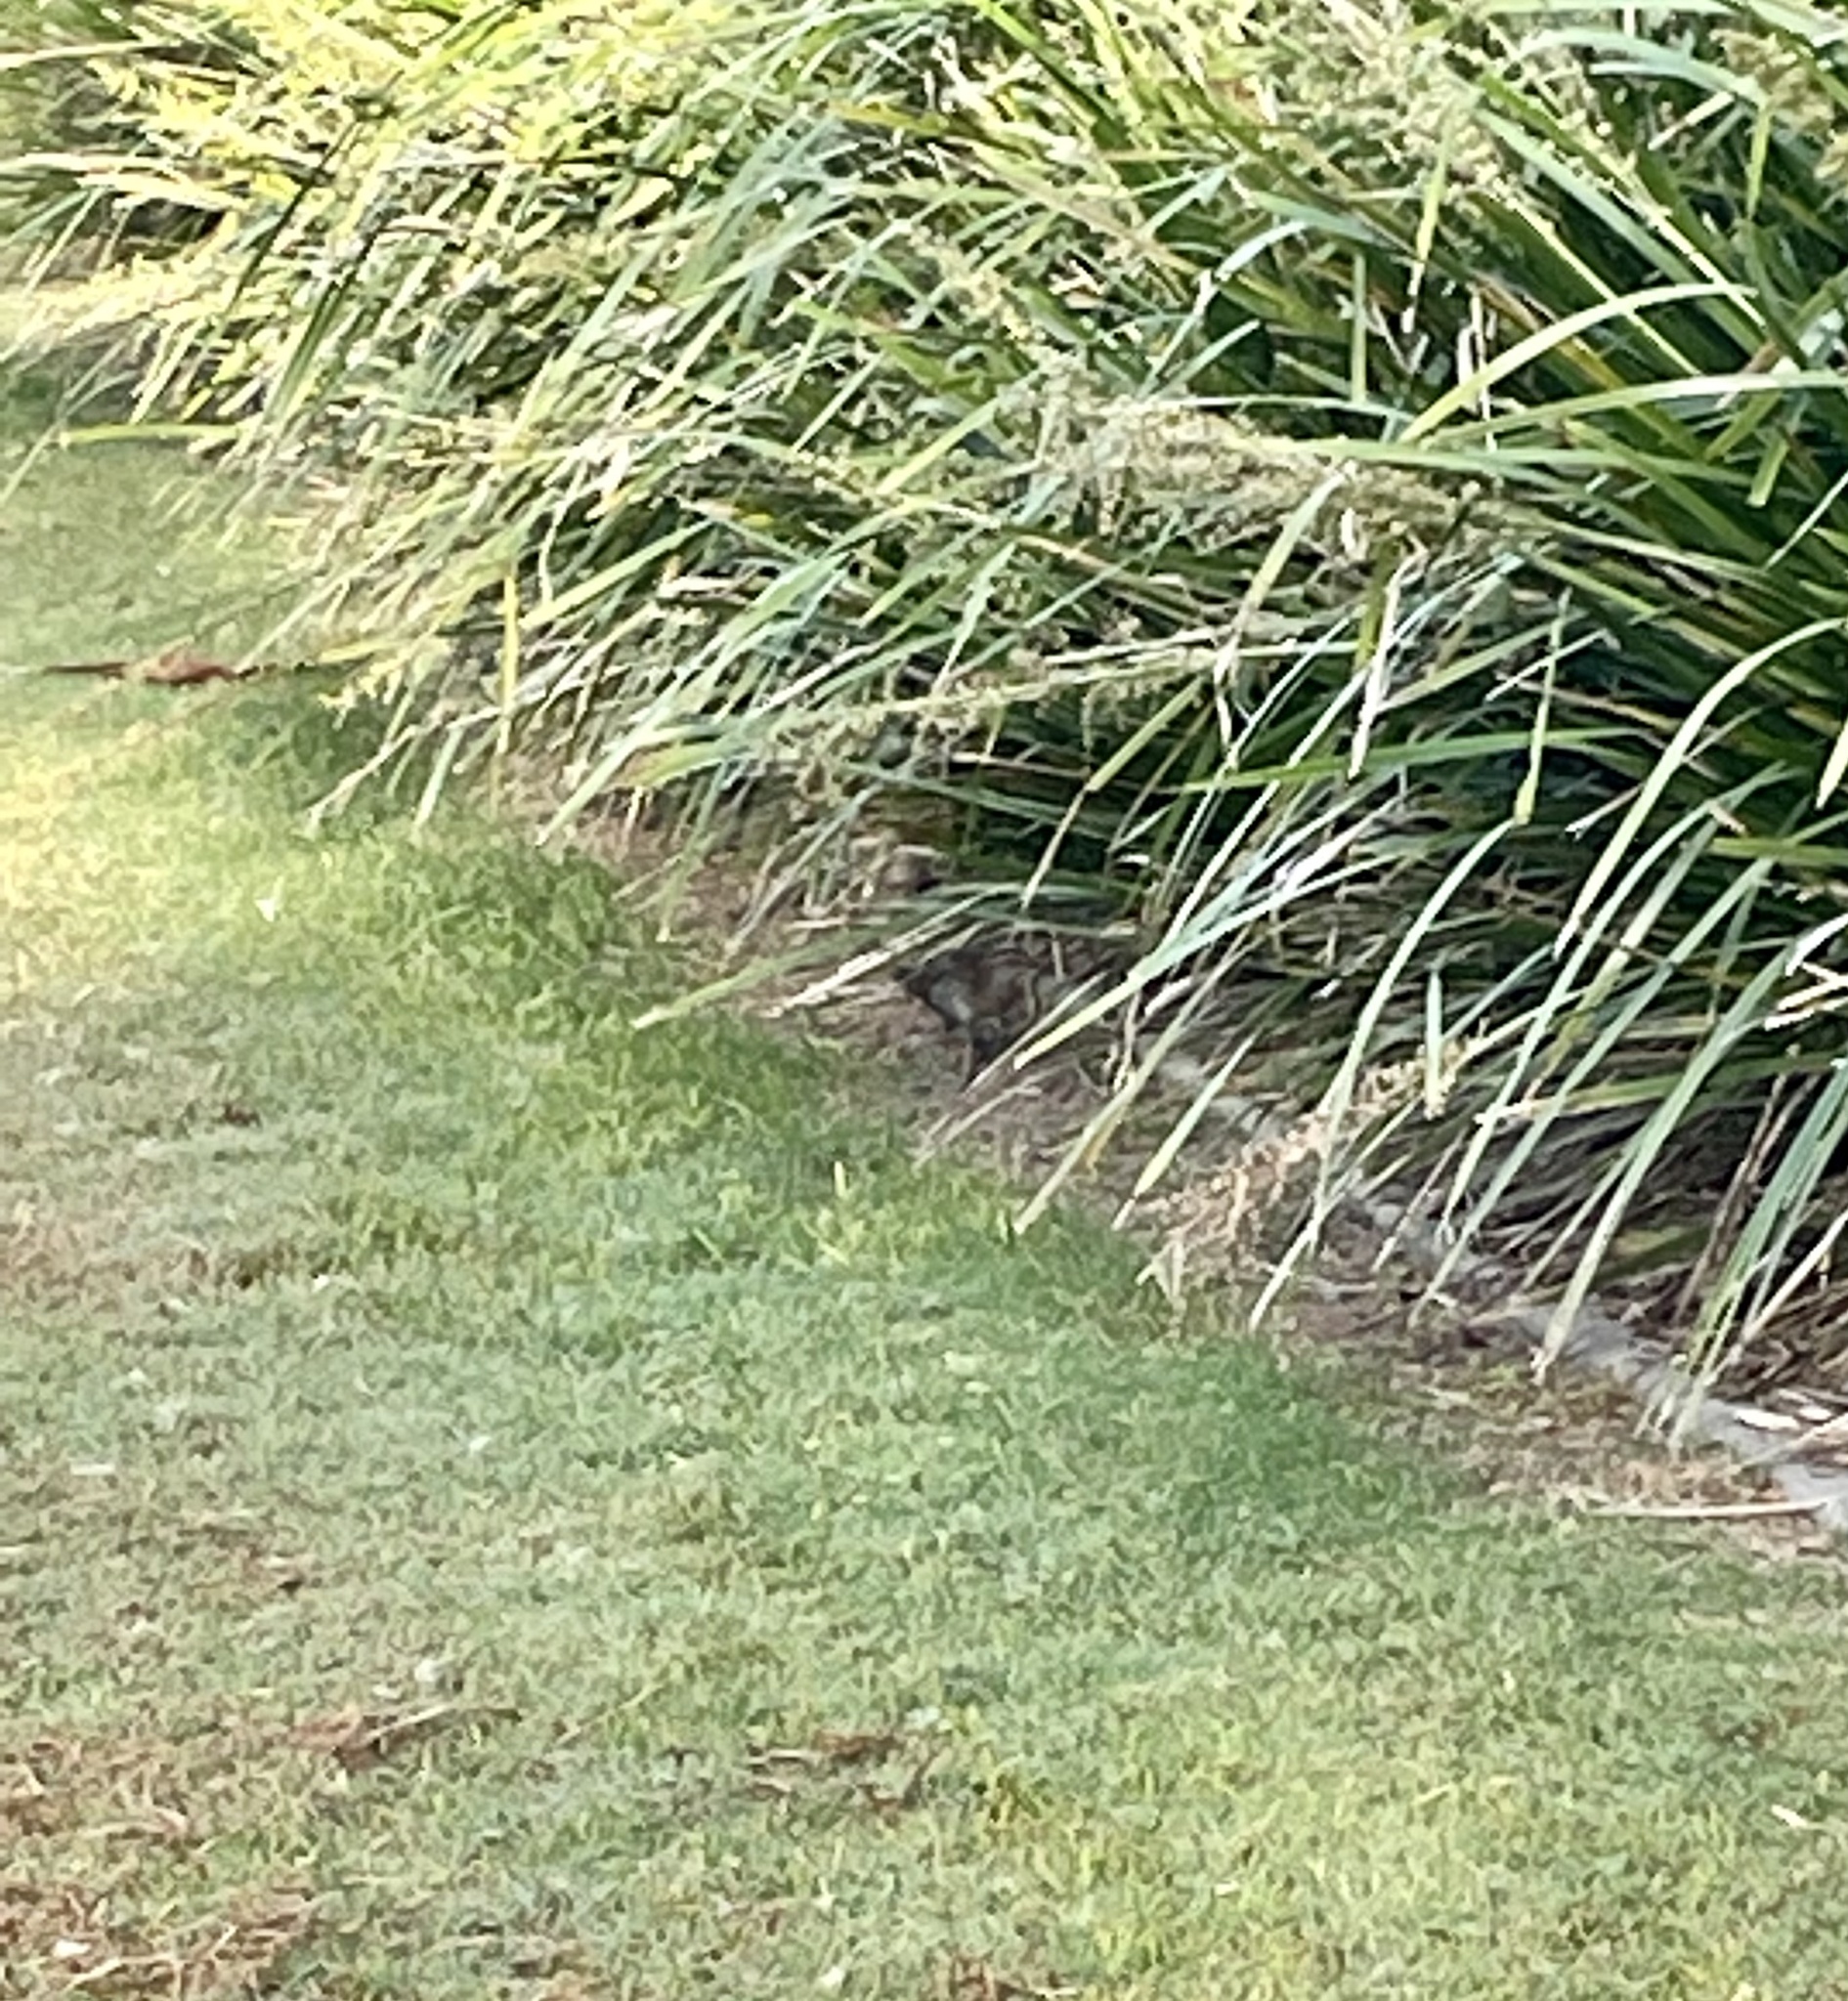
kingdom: Animalia
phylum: Chordata
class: Aves
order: Gruiformes
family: Rallidae
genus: Gallirallus
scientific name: Gallirallus philippensis
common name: Buff-banded rail
